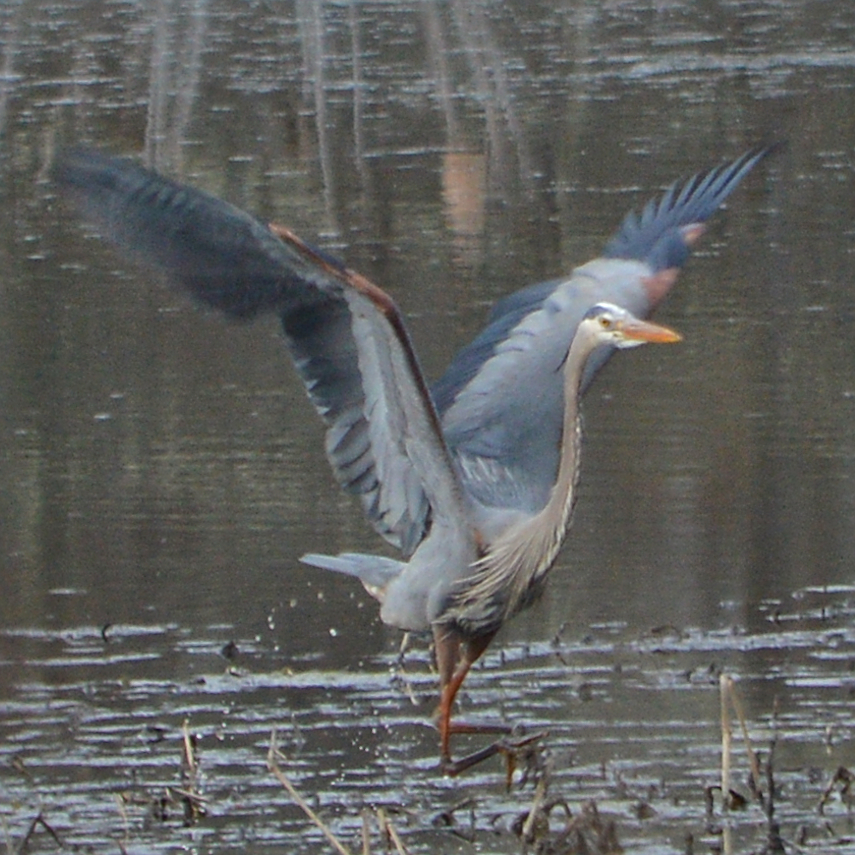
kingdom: Animalia
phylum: Chordata
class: Aves
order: Pelecaniformes
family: Ardeidae
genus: Ardea
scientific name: Ardea herodias
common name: Great blue heron
